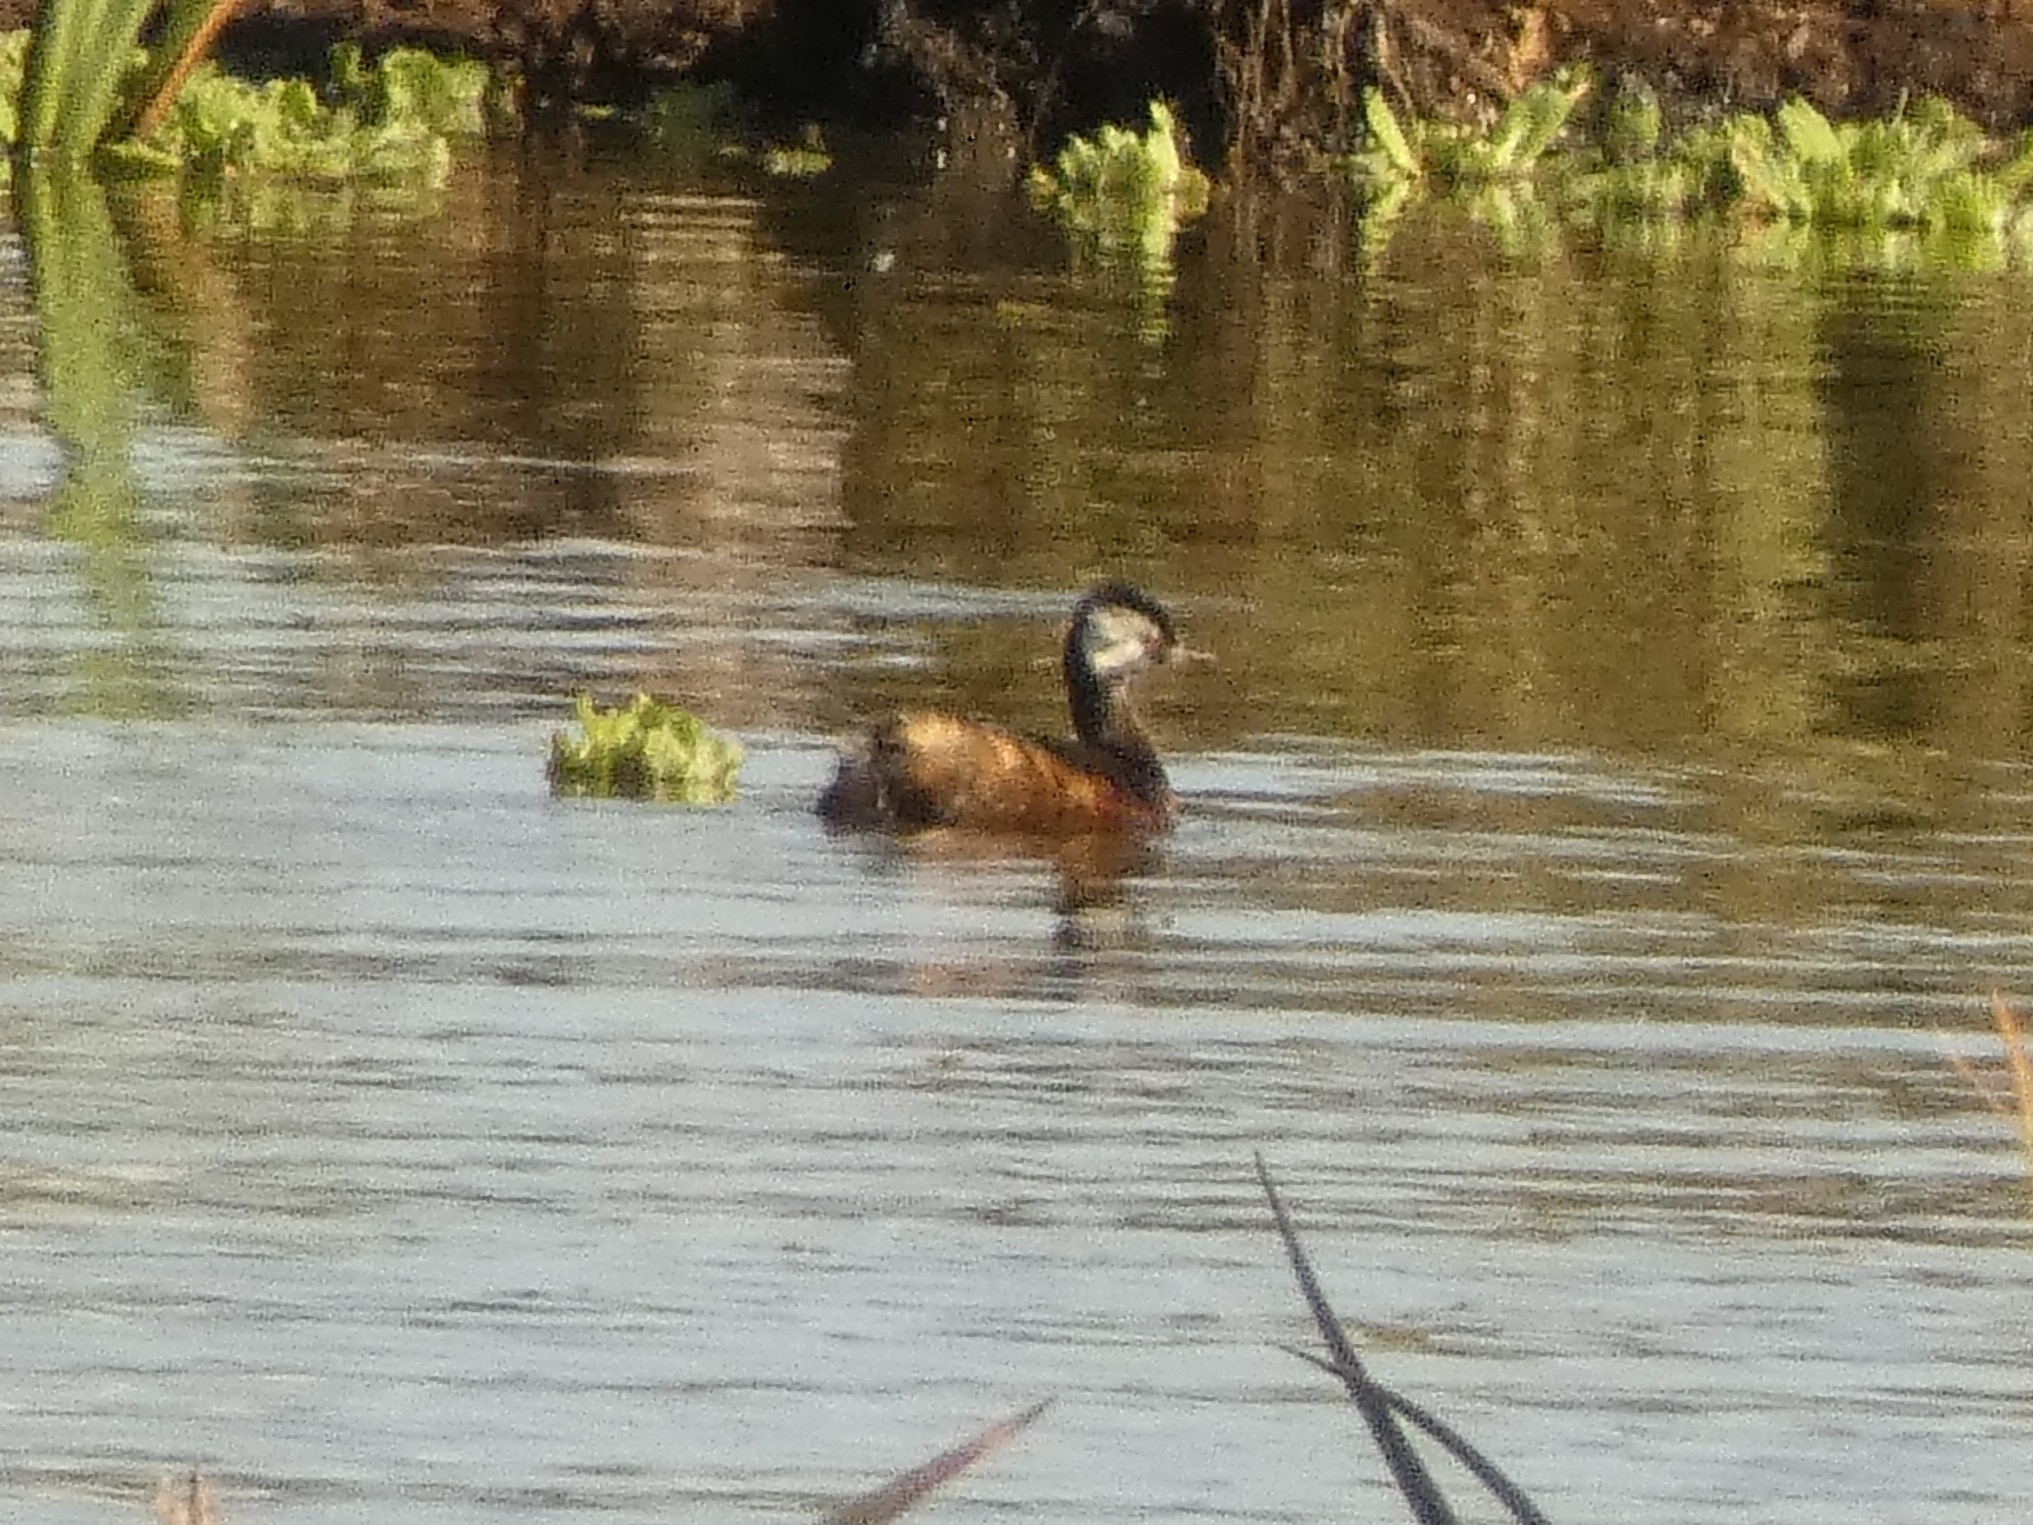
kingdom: Animalia
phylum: Chordata
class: Aves
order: Podicipediformes
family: Podicipedidae
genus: Rollandia
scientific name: Rollandia rolland
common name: White-tufted grebe
